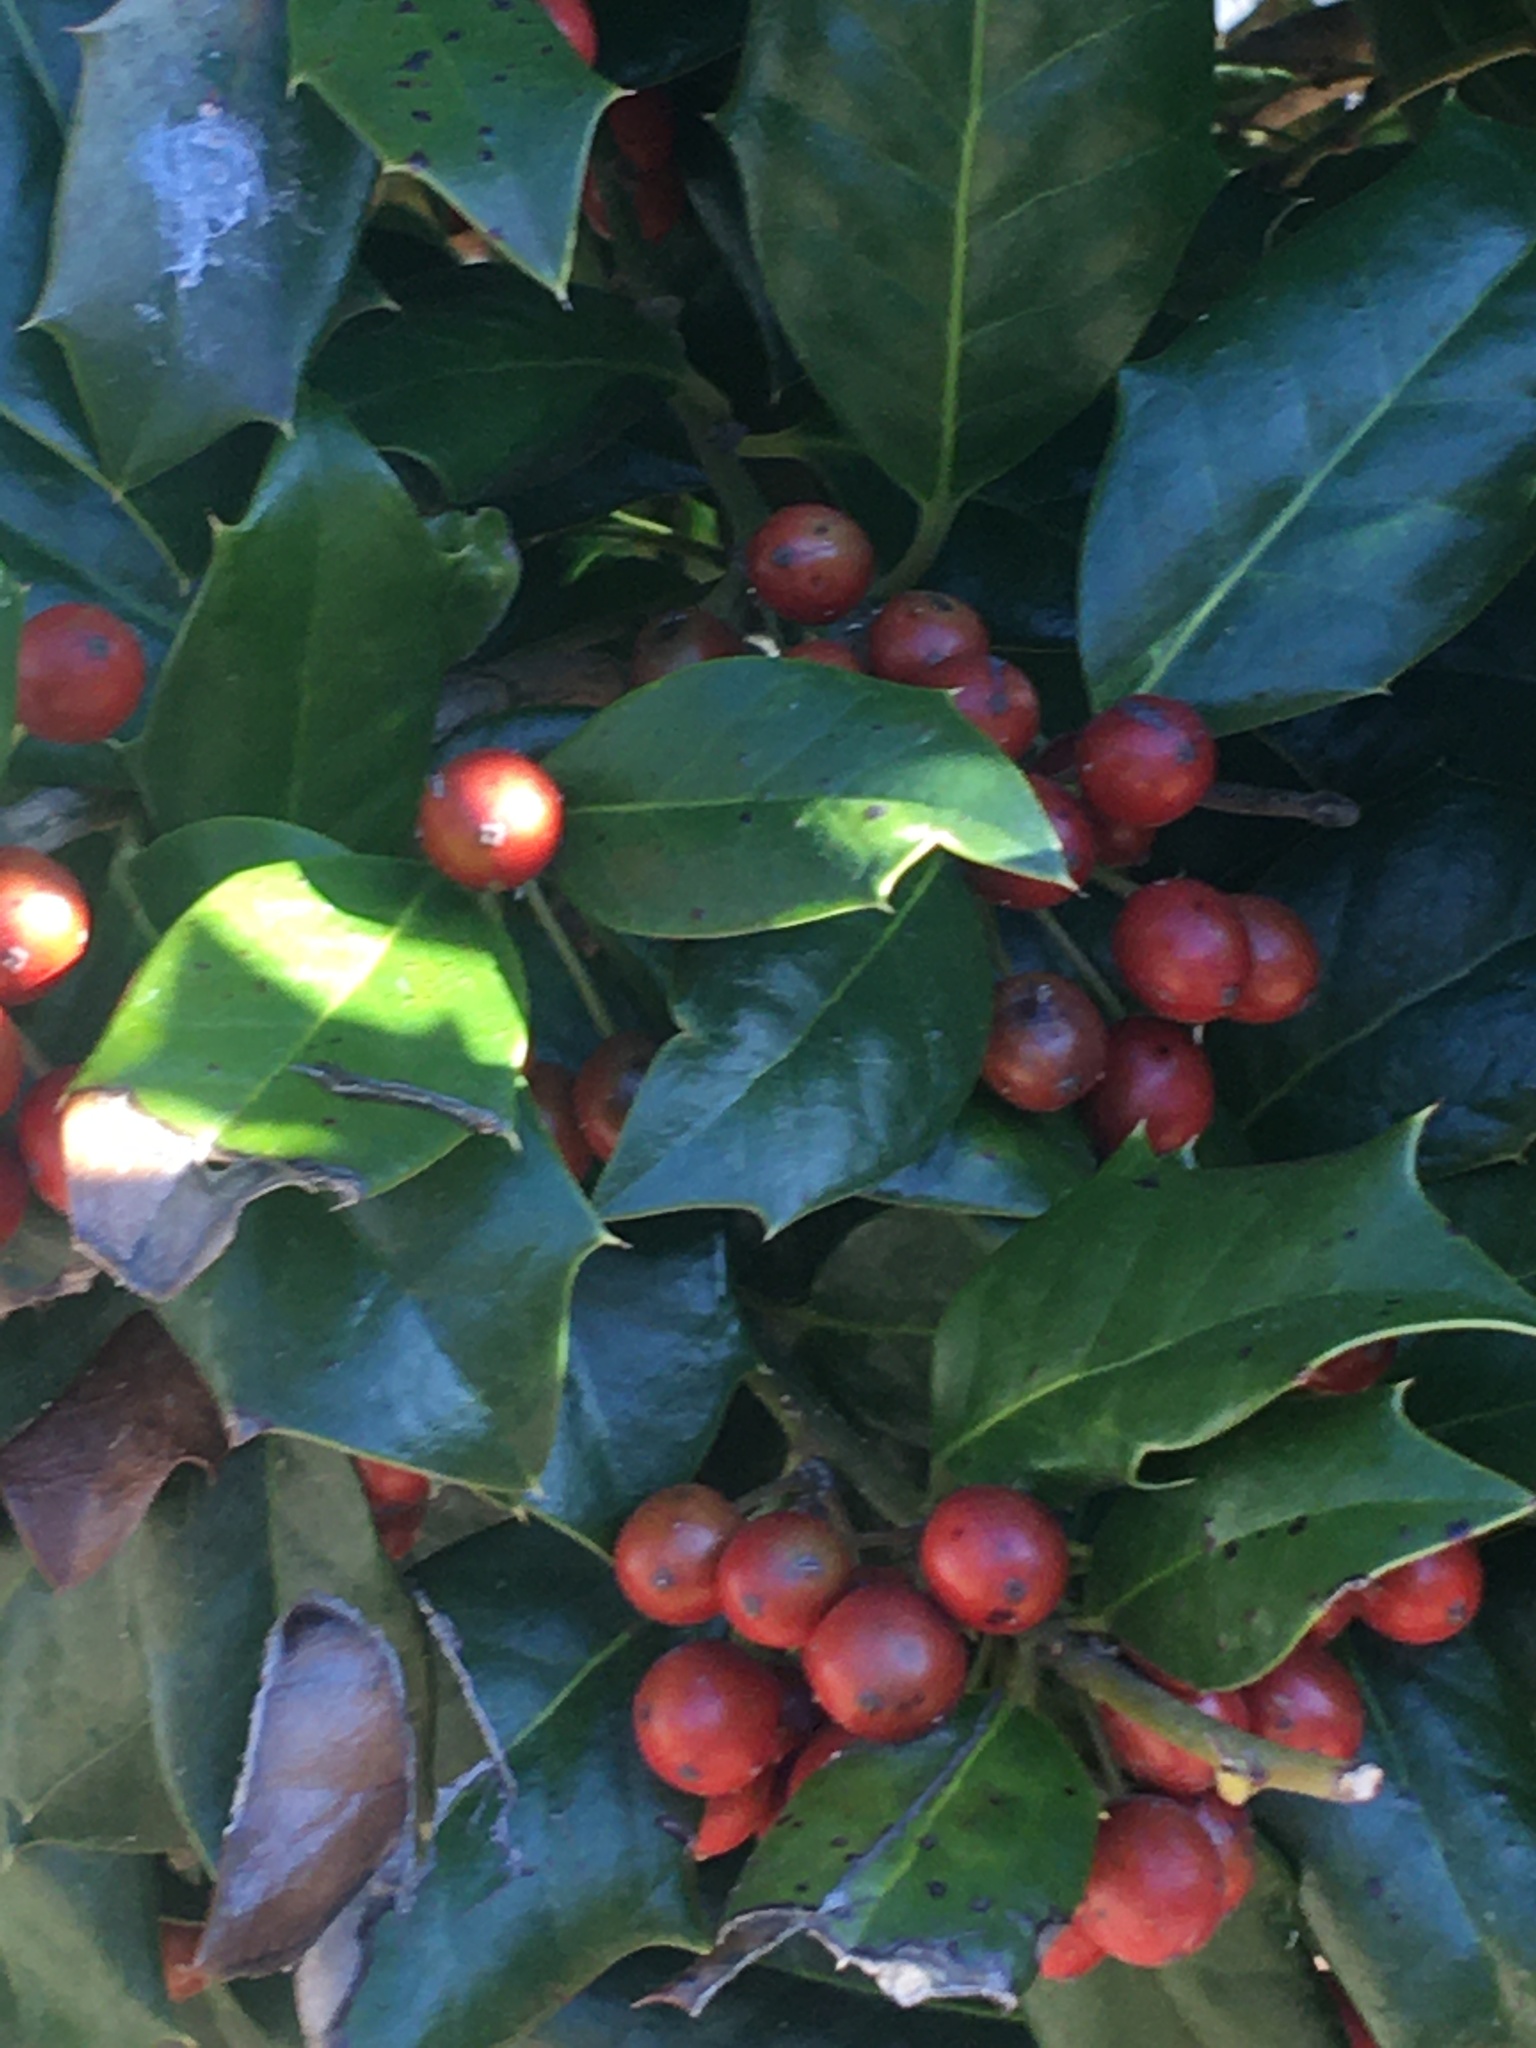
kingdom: Plantae
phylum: Tracheophyta
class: Magnoliopsida
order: Aquifoliales
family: Aquifoliaceae
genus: Ilex
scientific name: Ilex opaca
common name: American holly
